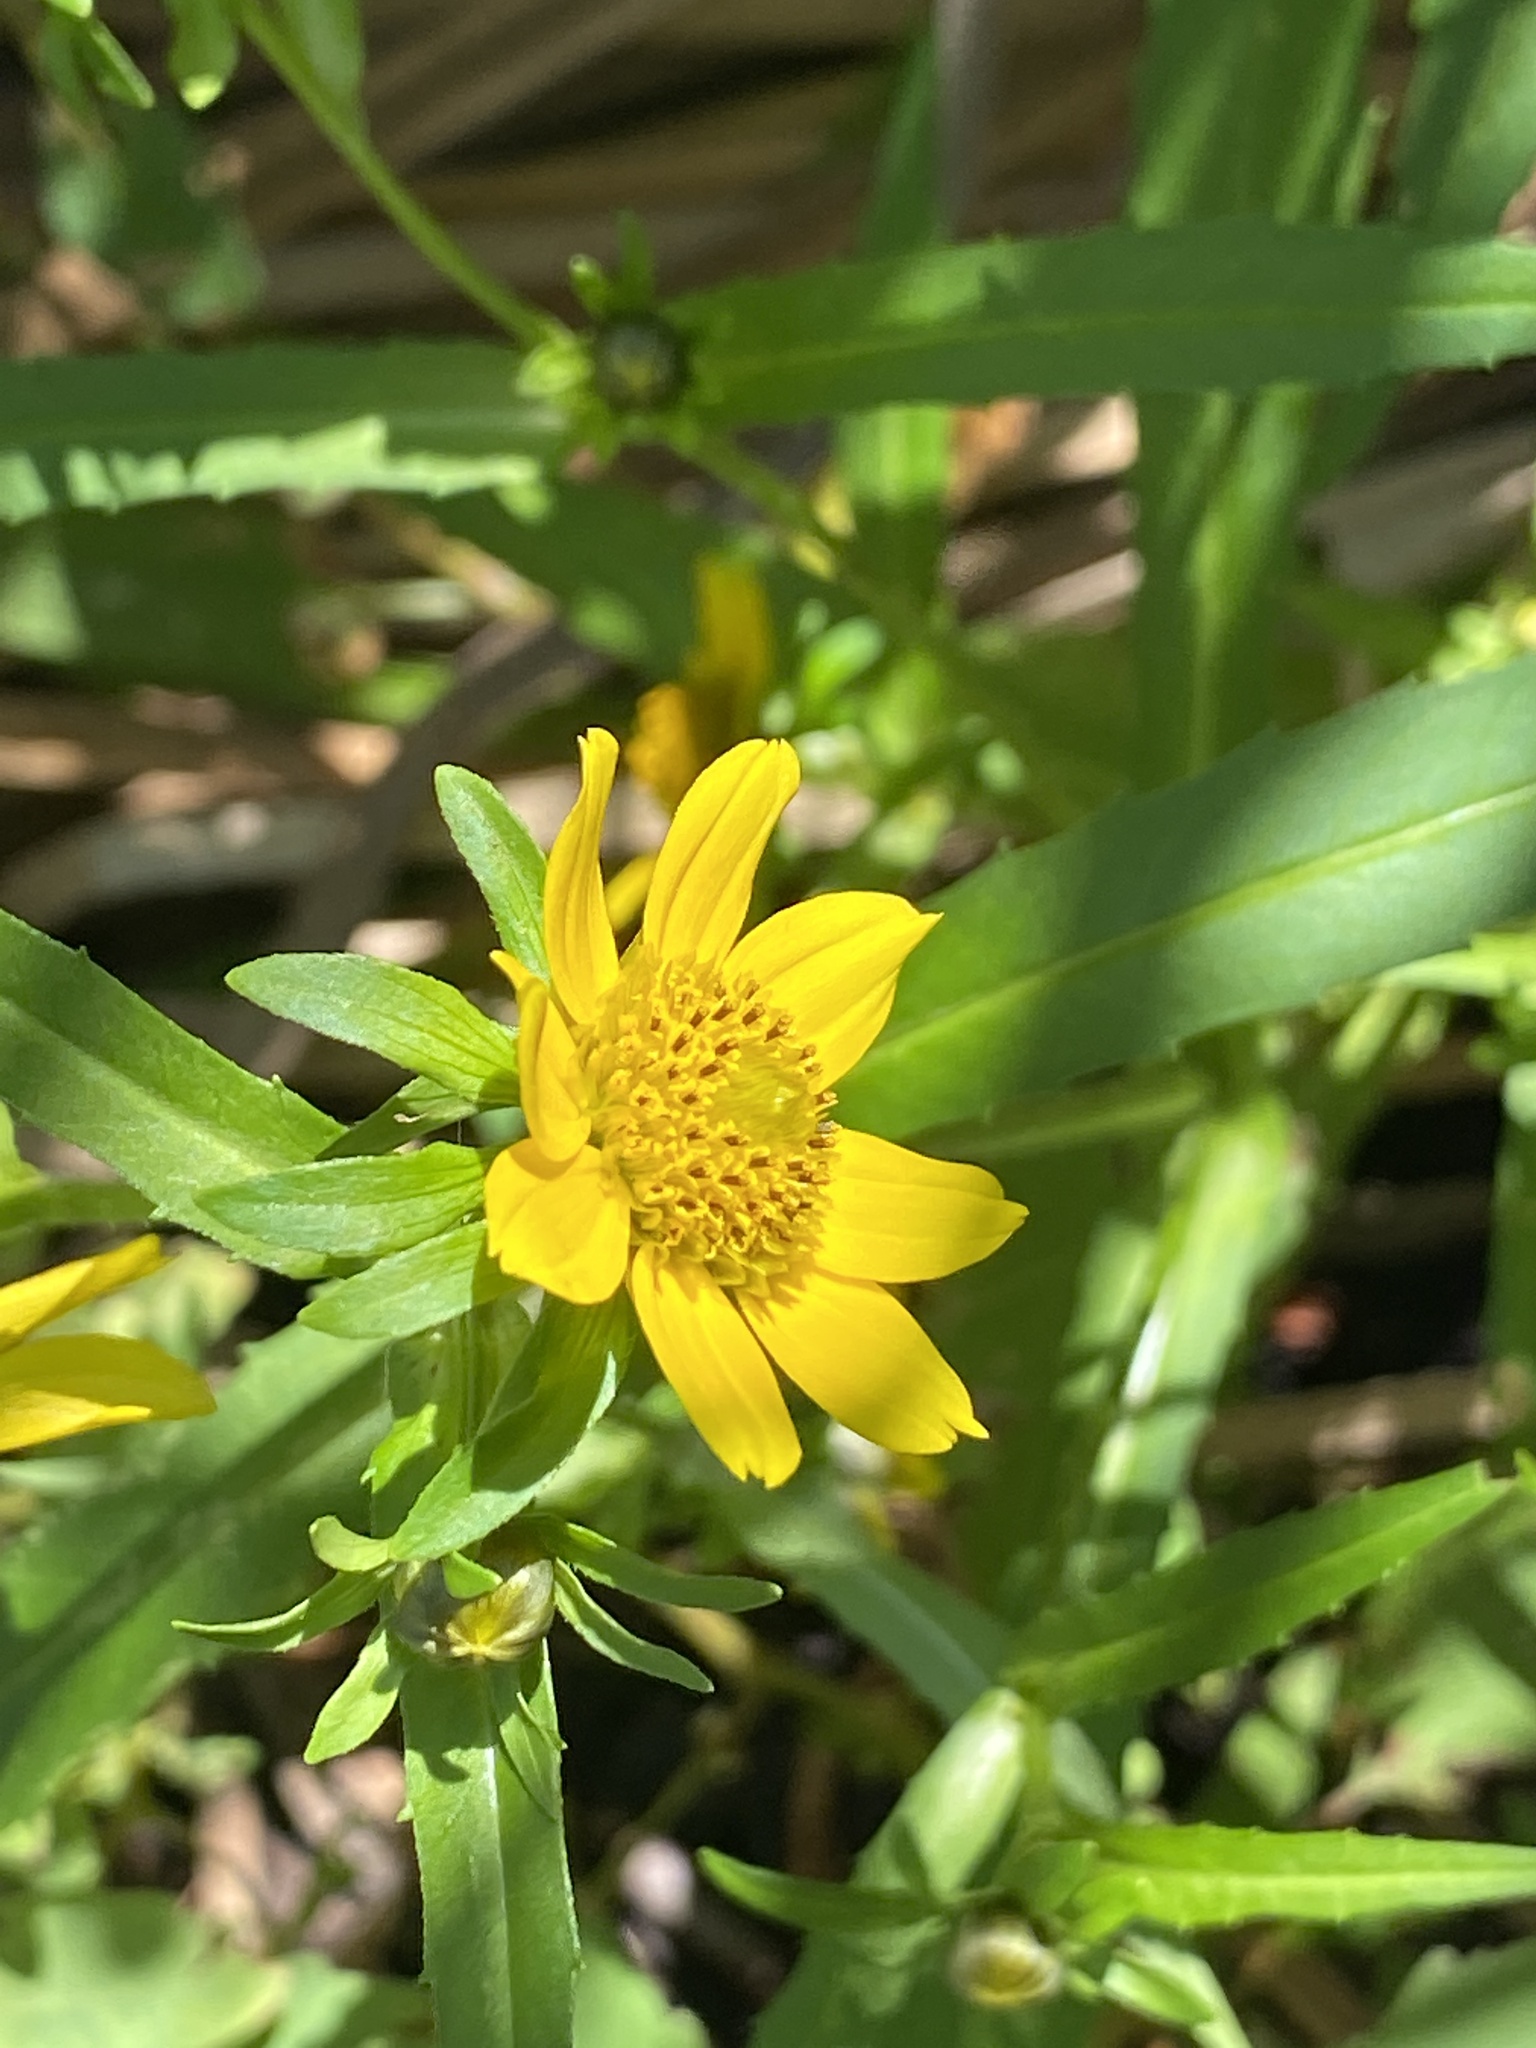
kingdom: Plantae
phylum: Tracheophyta
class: Magnoliopsida
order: Asterales
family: Asteraceae
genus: Bidens
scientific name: Bidens cernua
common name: Nodding bur-marigold
